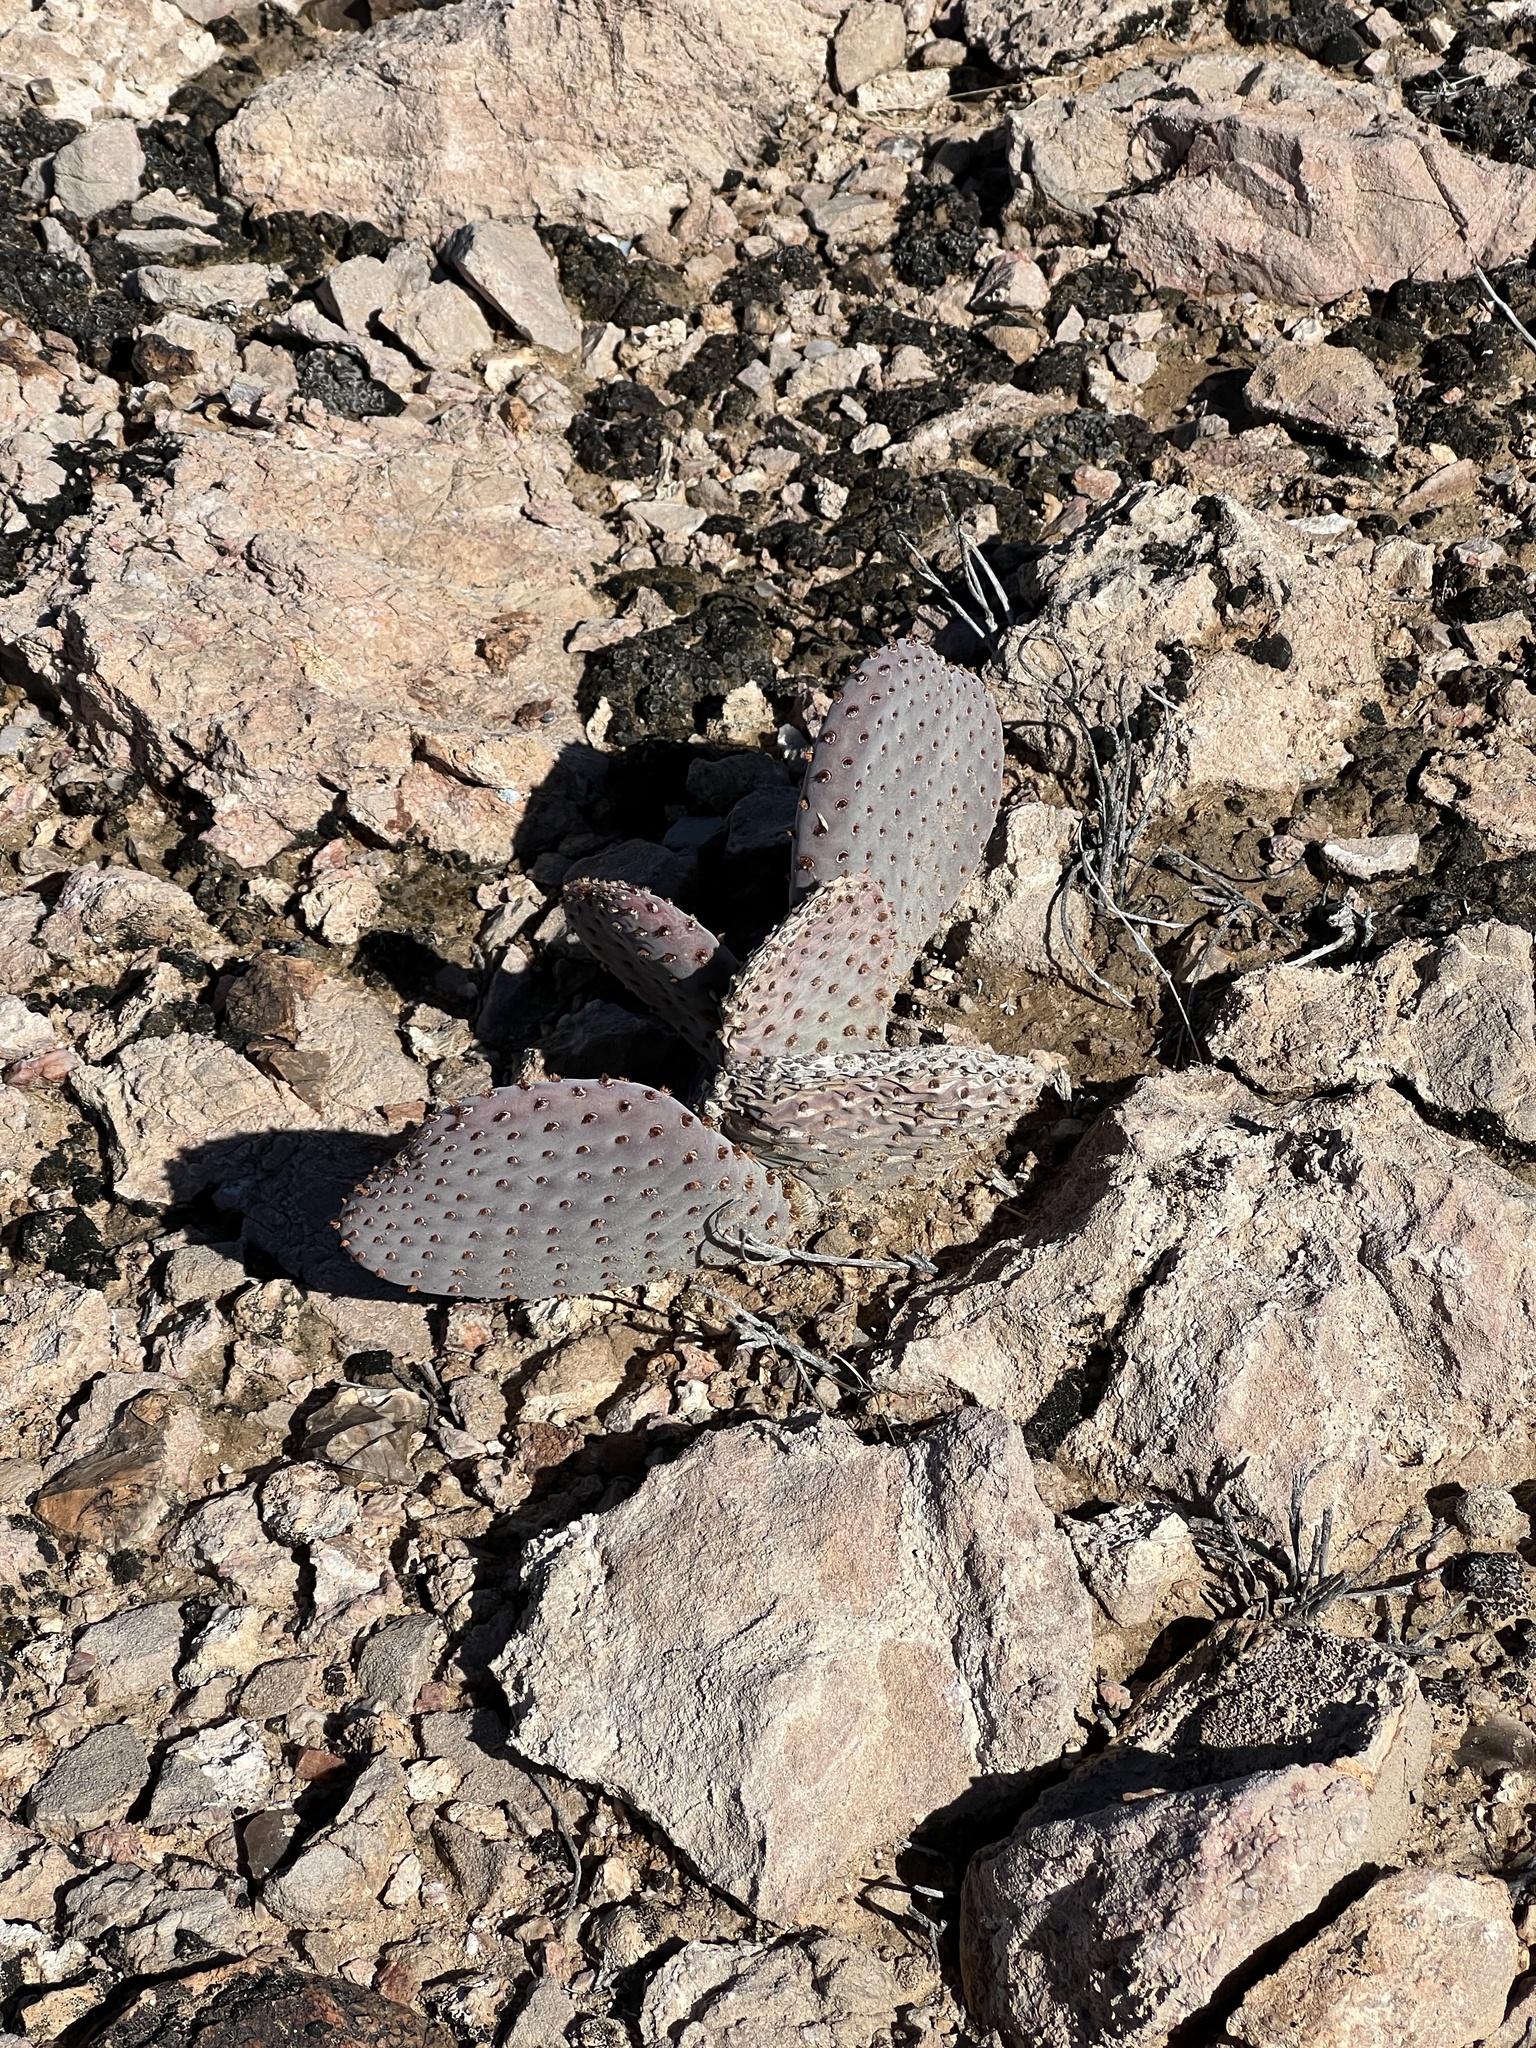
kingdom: Plantae
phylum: Tracheophyta
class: Magnoliopsida
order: Caryophyllales
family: Cactaceae
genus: Opuntia
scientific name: Opuntia basilaris
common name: Beavertail prickly-pear
